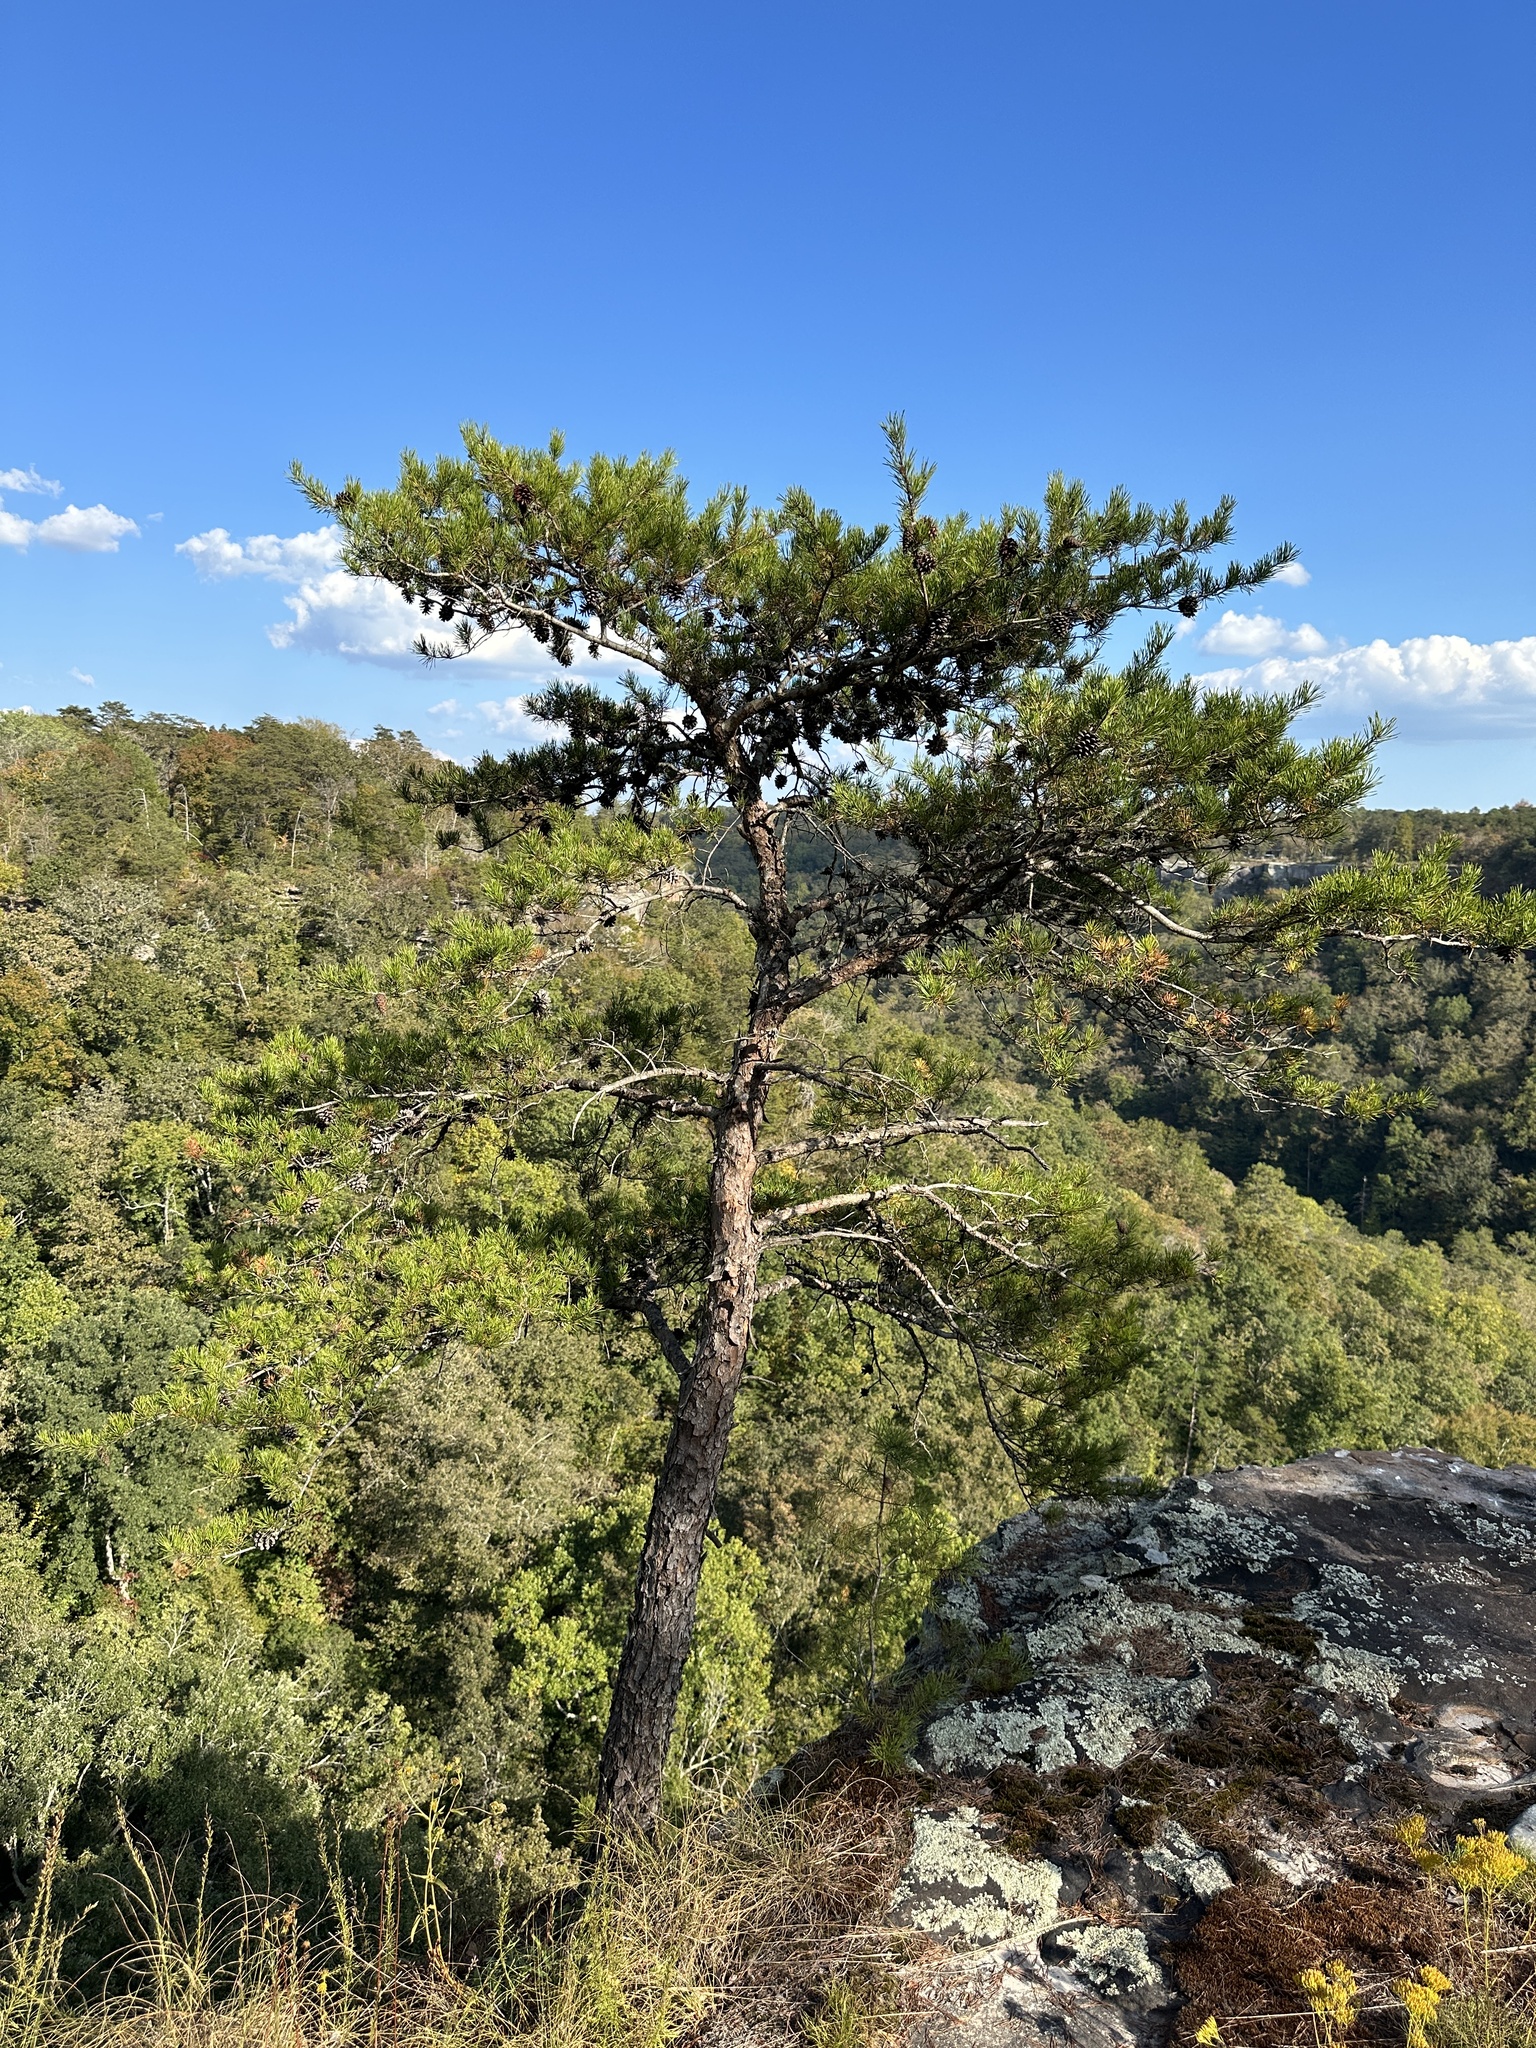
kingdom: Plantae
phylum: Tracheophyta
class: Pinopsida
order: Pinales
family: Pinaceae
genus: Pinus
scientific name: Pinus virginiana
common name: Scrub pine
